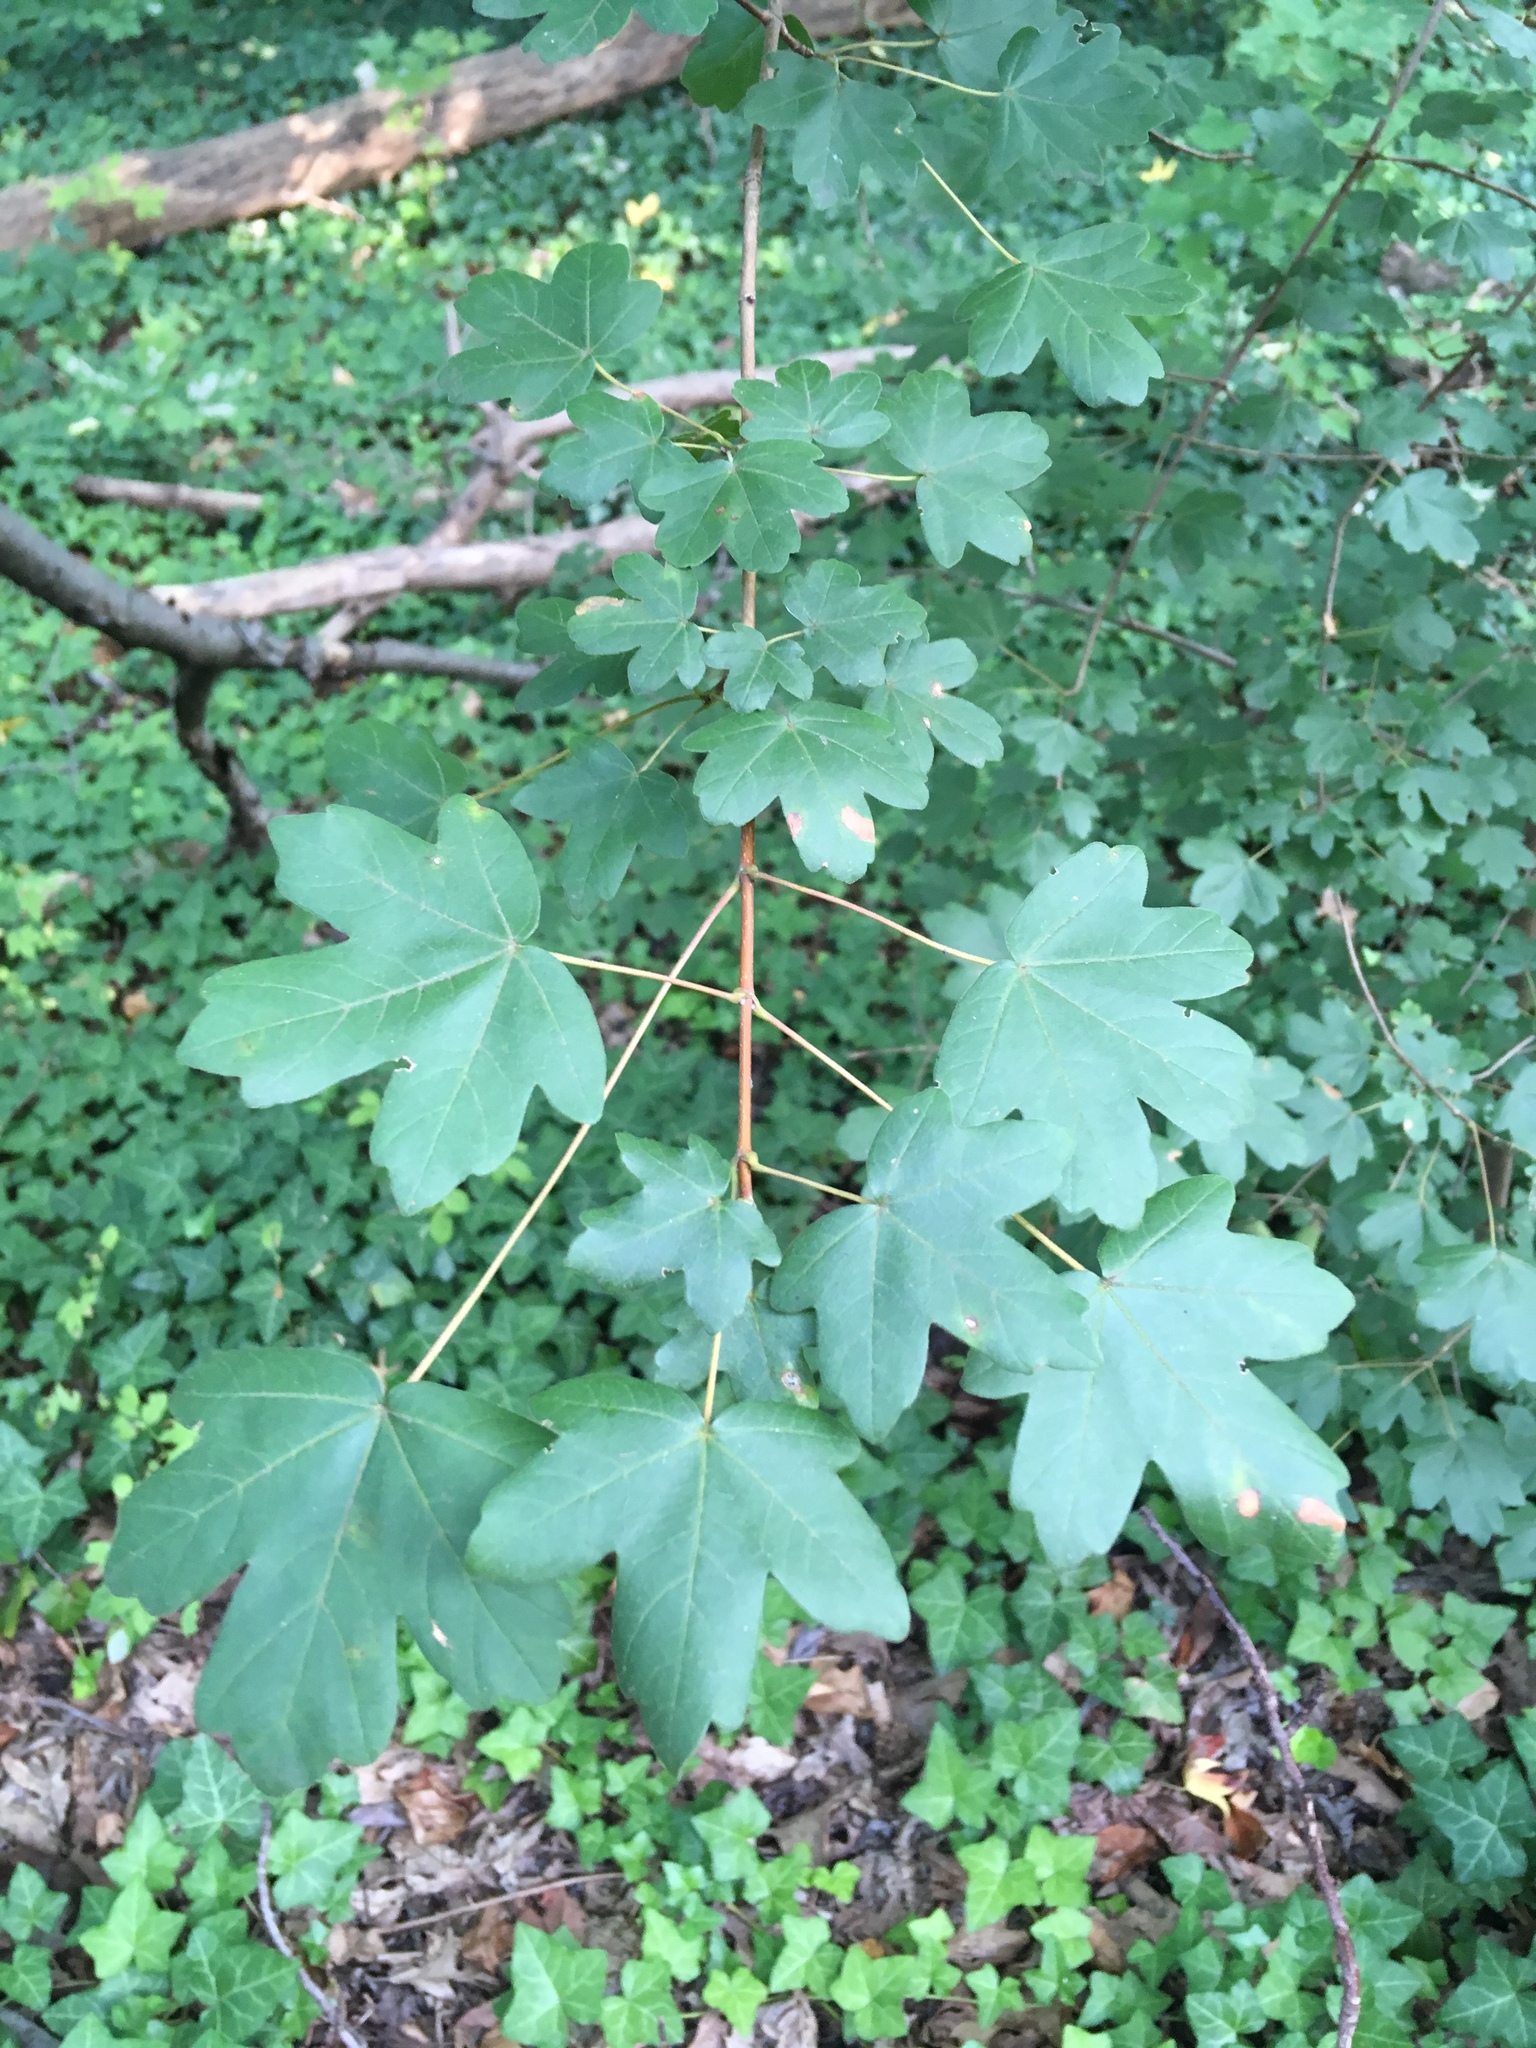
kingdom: Plantae
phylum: Tracheophyta
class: Magnoliopsida
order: Sapindales
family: Sapindaceae
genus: Acer
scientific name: Acer campestre
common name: Field maple
